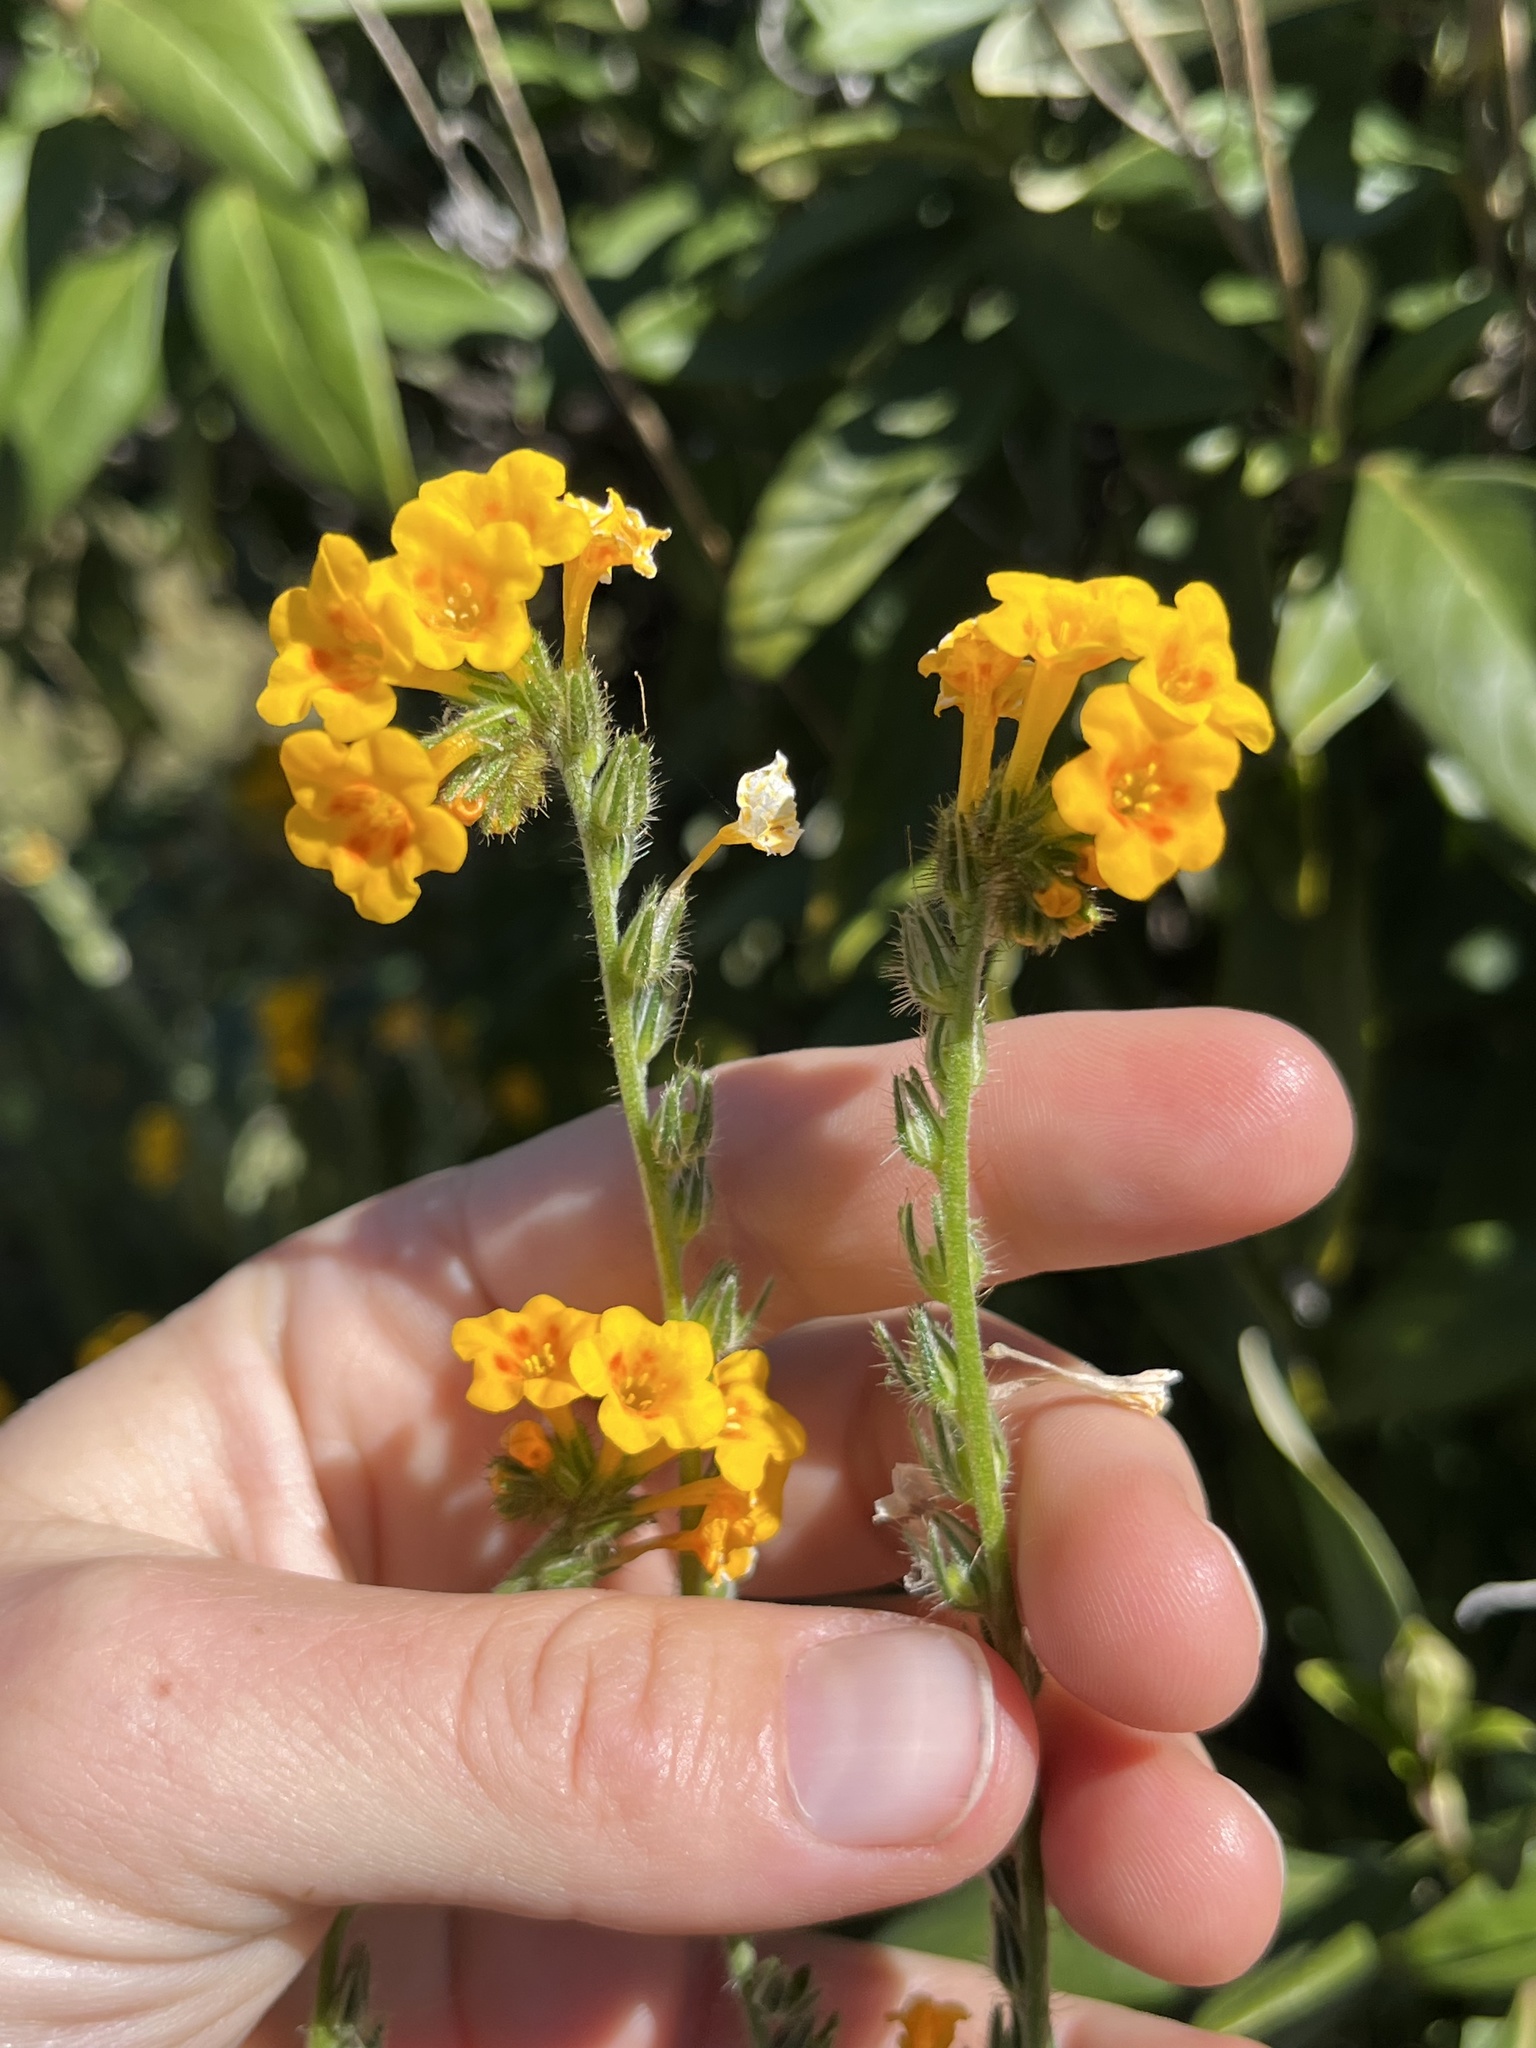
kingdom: Plantae
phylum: Tracheophyta
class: Magnoliopsida
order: Boraginales
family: Boraginaceae
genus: Amsinckia
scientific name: Amsinckia eastwoodiae
